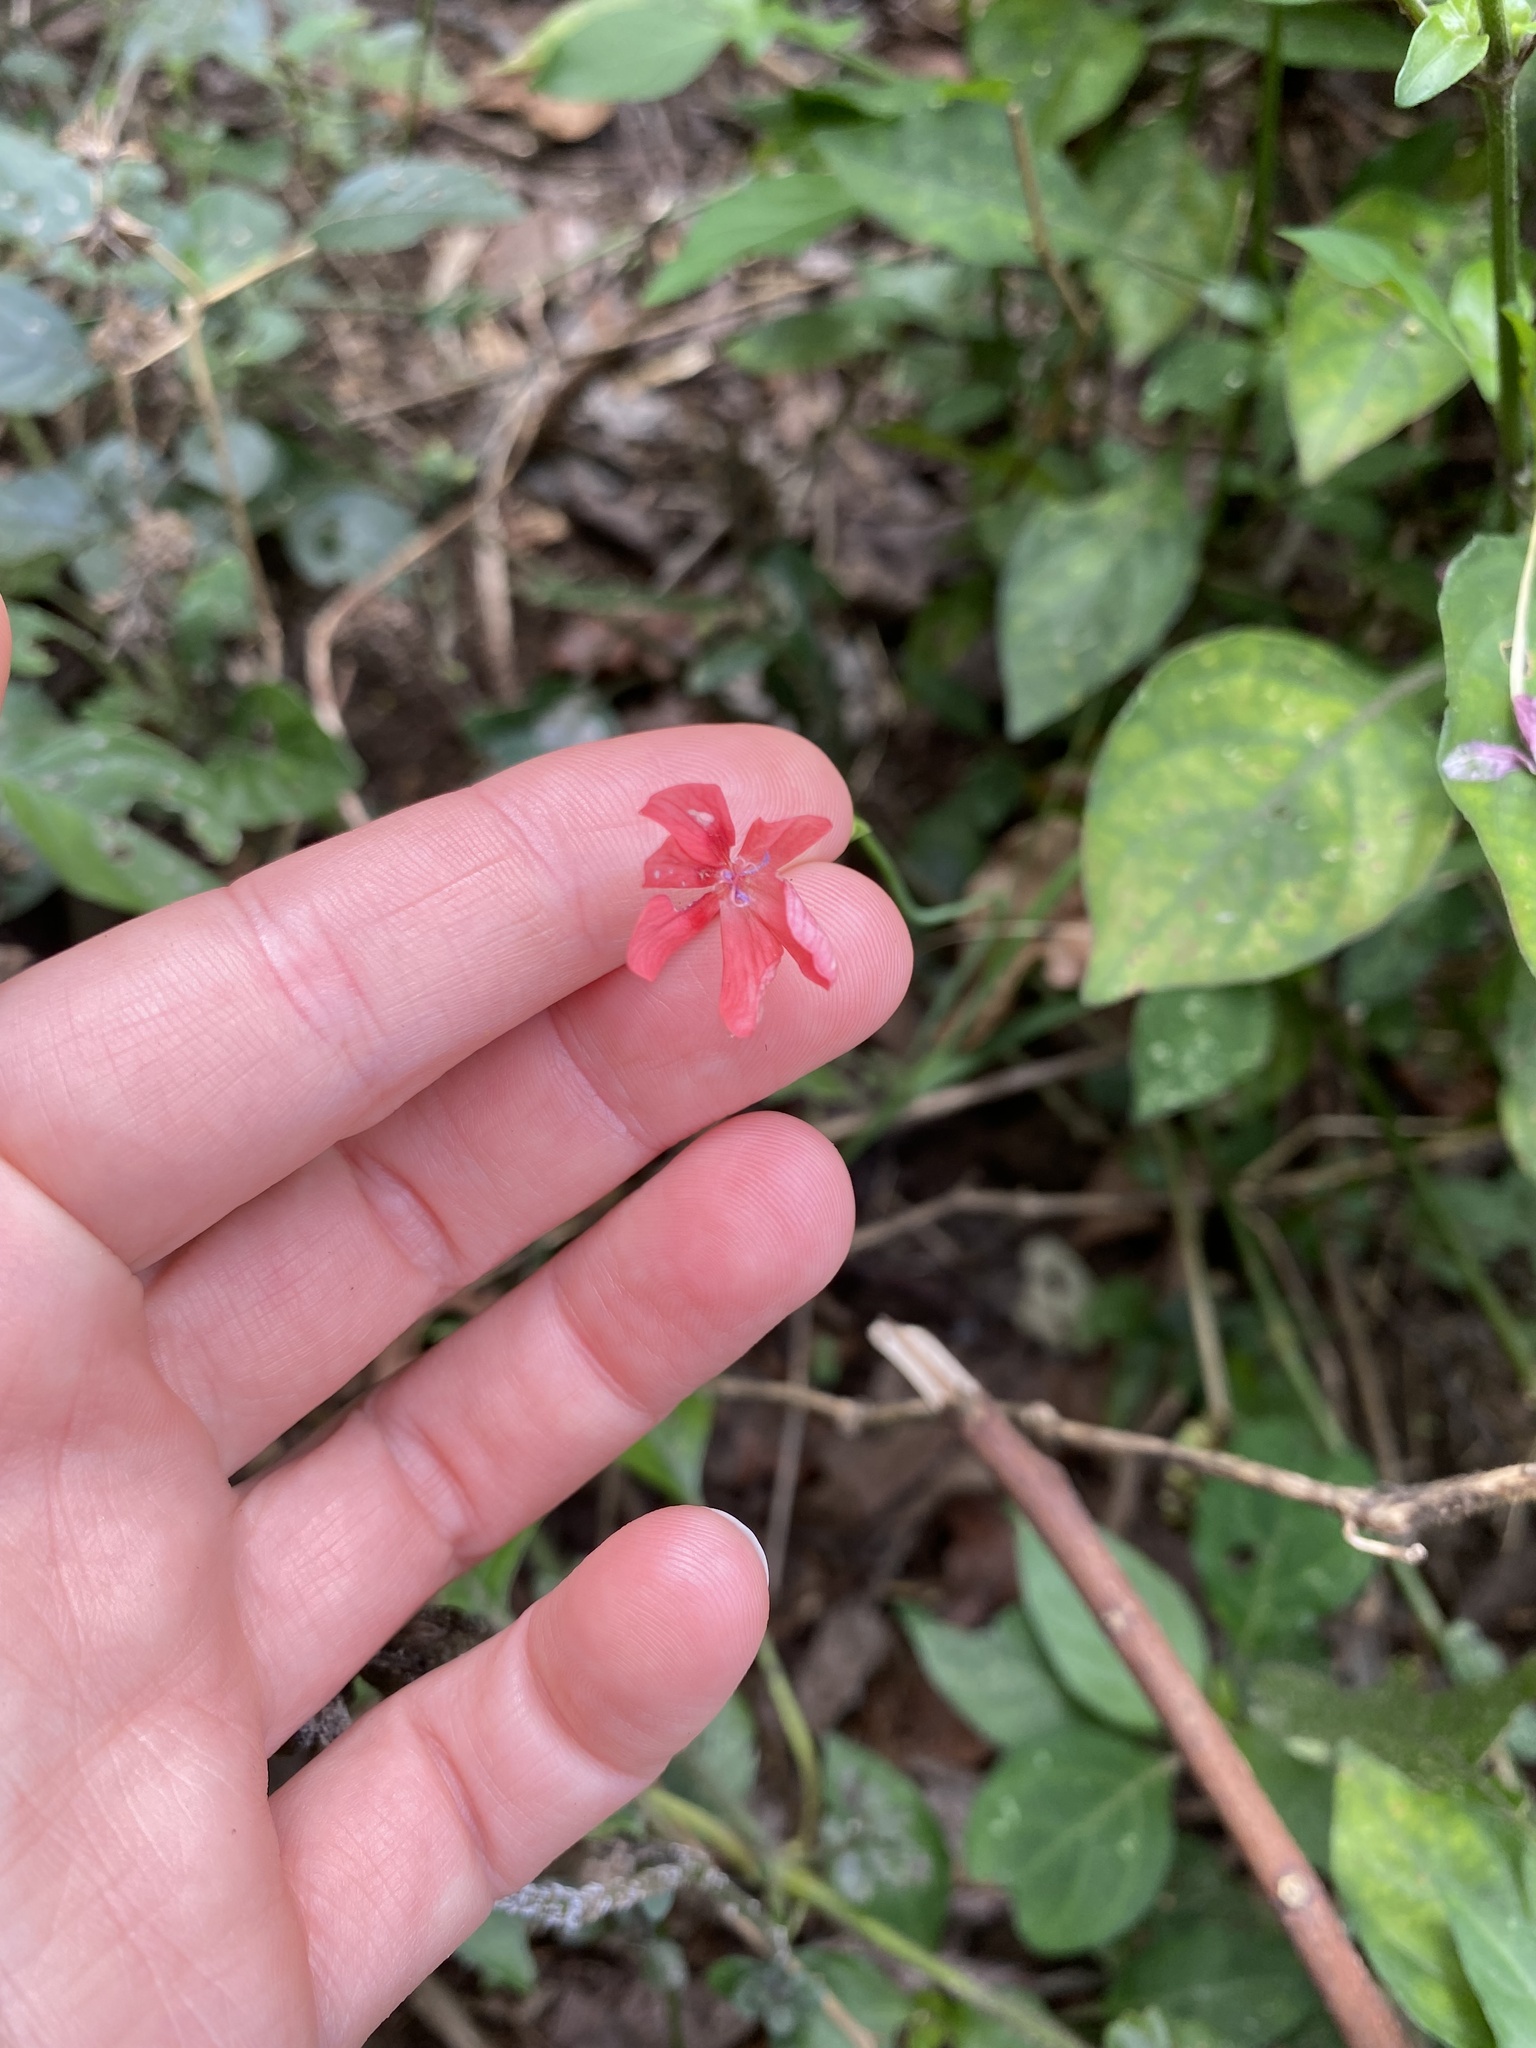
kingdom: Plantae
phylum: Tracheophyta
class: Liliopsida
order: Asparagales
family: Iridaceae
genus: Freesia
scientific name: Freesia laxa
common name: False freesia
